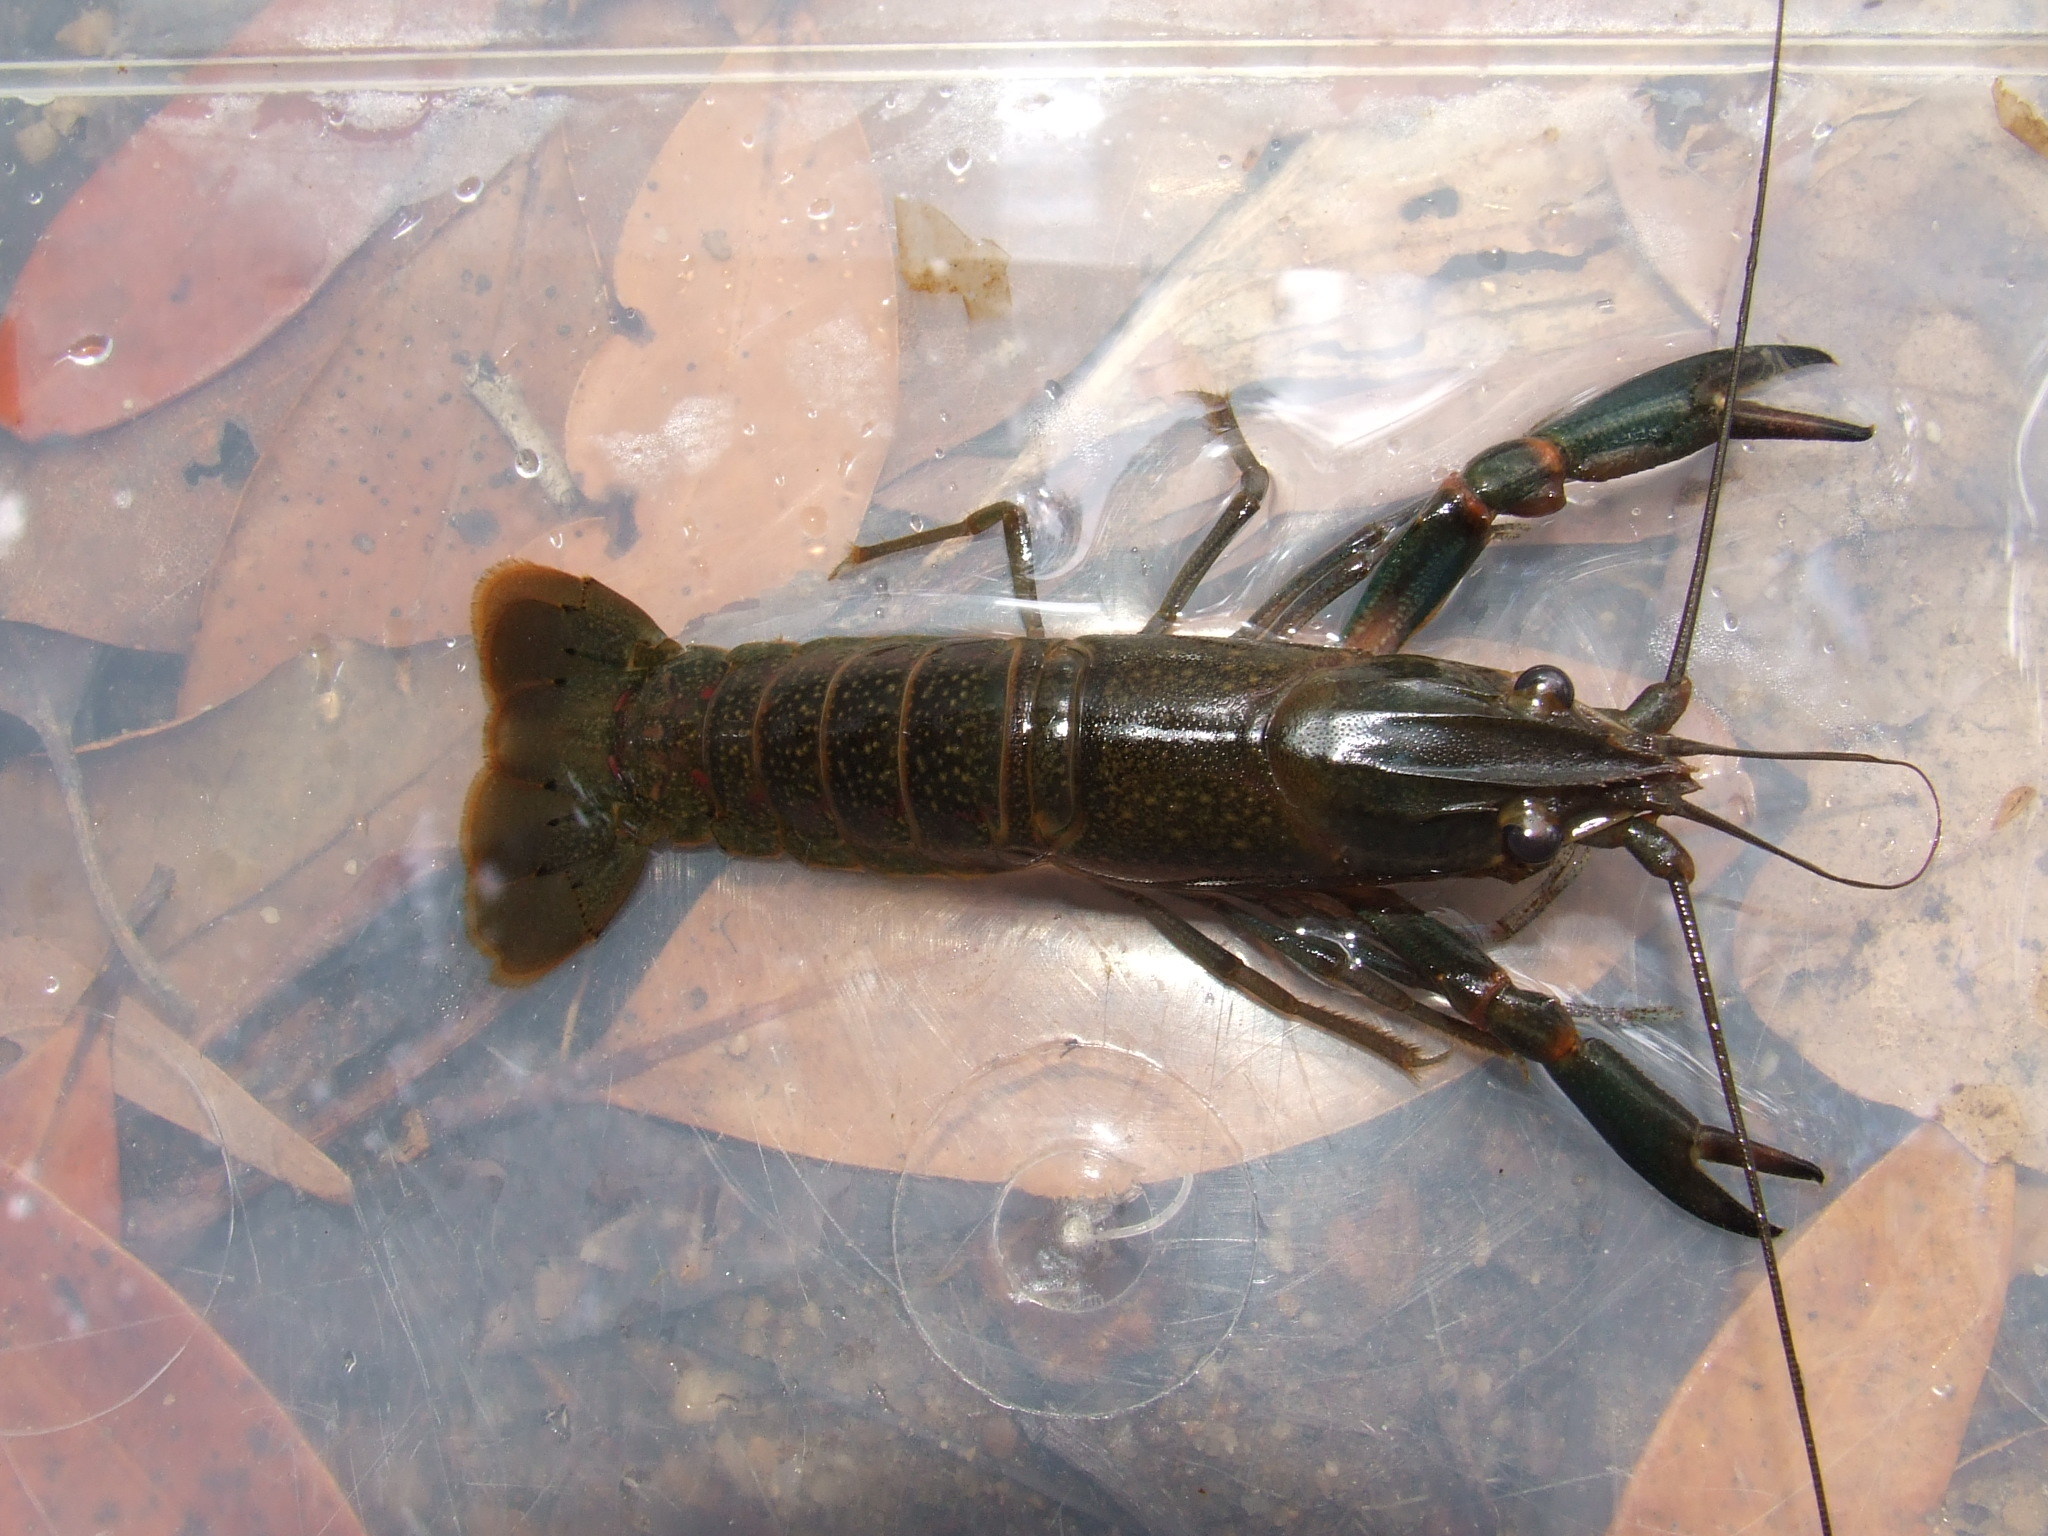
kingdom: Animalia
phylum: Arthropoda
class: Malacostraca
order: Decapoda
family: Parastacidae
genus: Cherax
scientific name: Cherax quadricarinatus
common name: Redclaw
